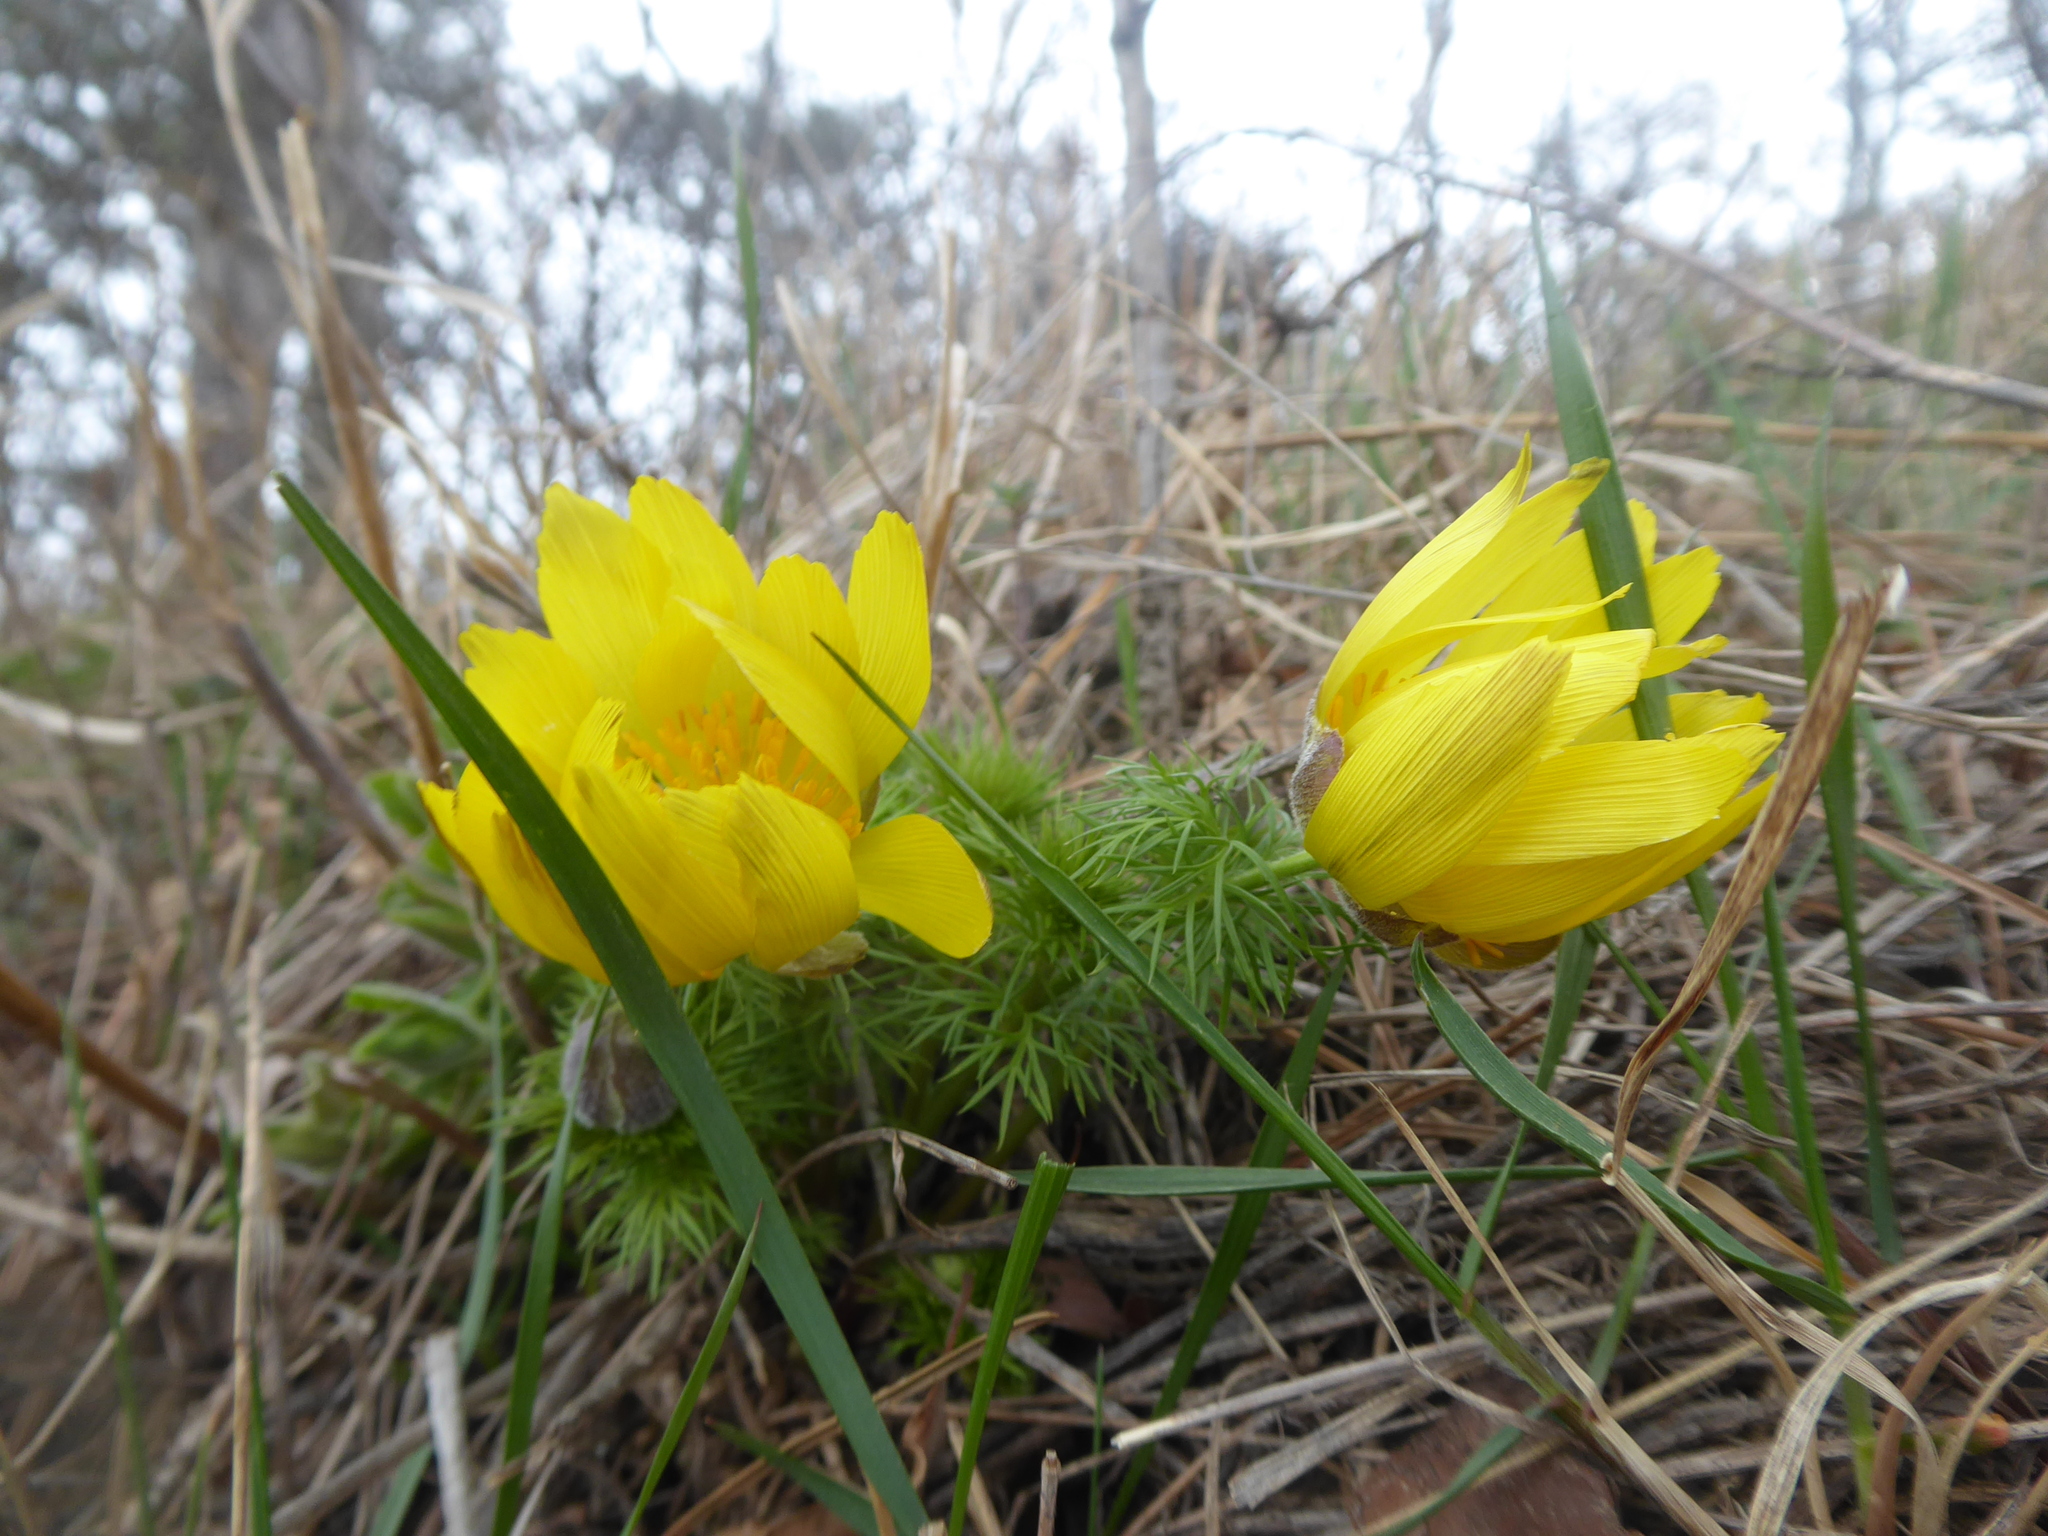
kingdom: Plantae
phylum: Tracheophyta
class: Magnoliopsida
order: Ranunculales
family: Ranunculaceae
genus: Adonis
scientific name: Adonis vernalis
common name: Yellow pheasants-eye
